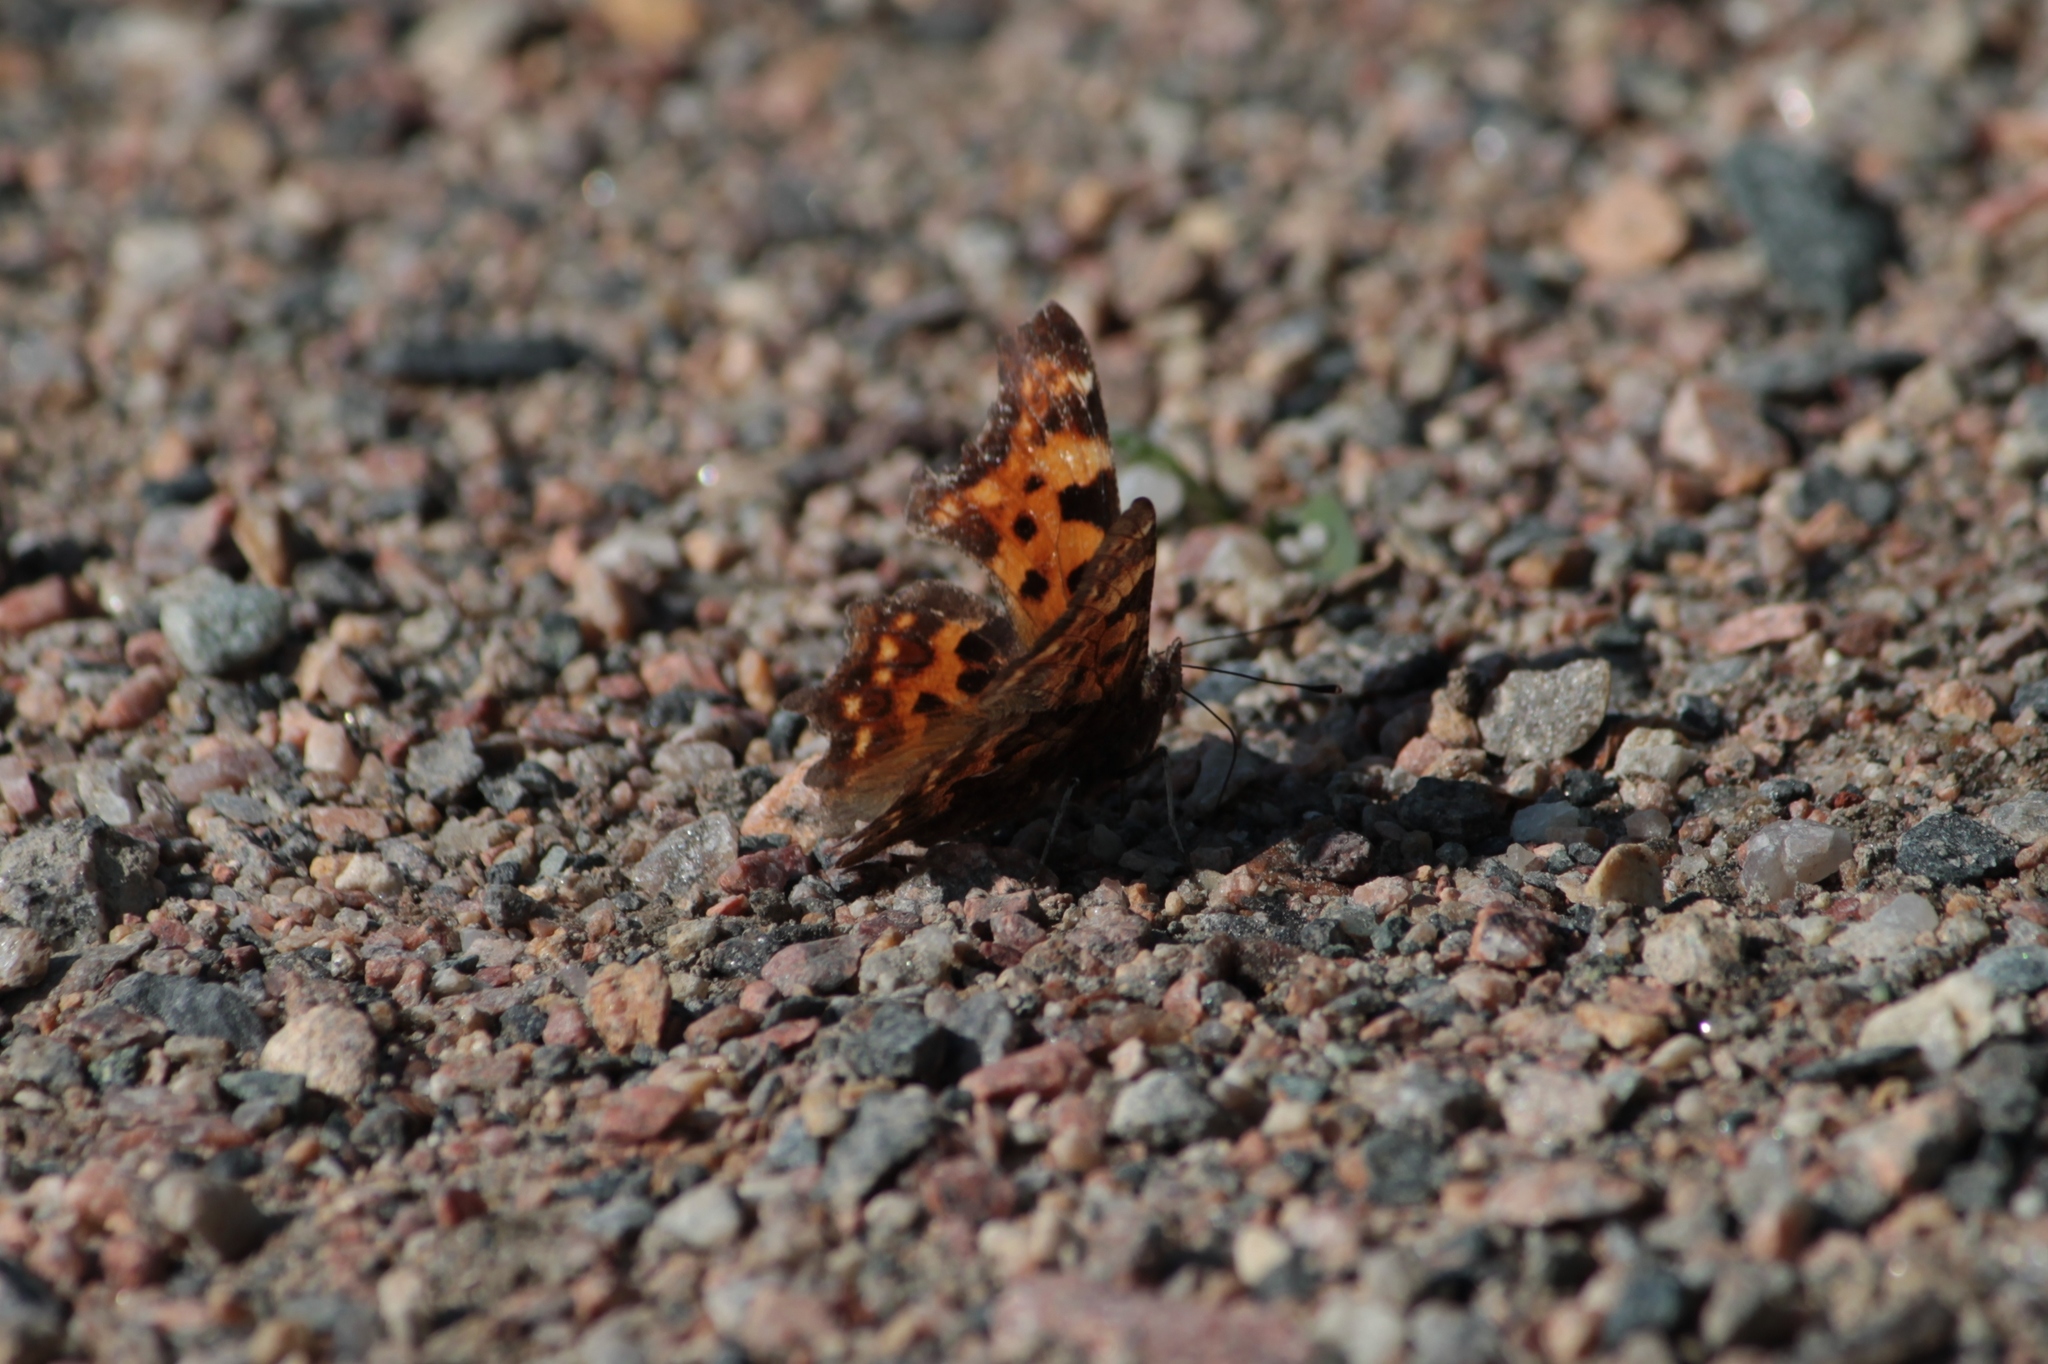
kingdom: Animalia
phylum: Arthropoda
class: Insecta
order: Lepidoptera
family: Nymphalidae
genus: Polygonia
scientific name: Polygonia c-album
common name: Comma
